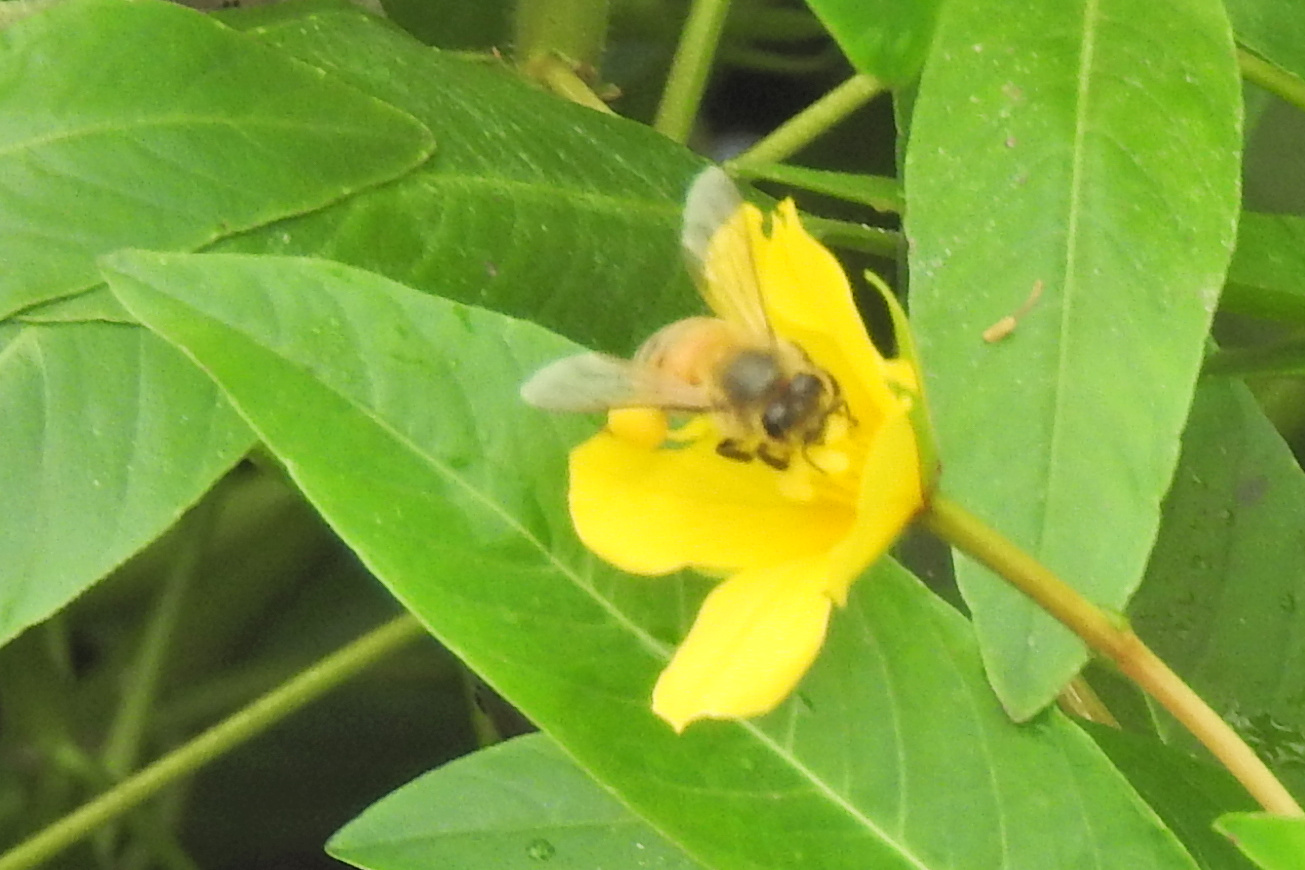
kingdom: Animalia
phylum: Arthropoda
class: Insecta
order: Hymenoptera
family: Apidae
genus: Apis
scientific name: Apis mellifera
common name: Honey bee
